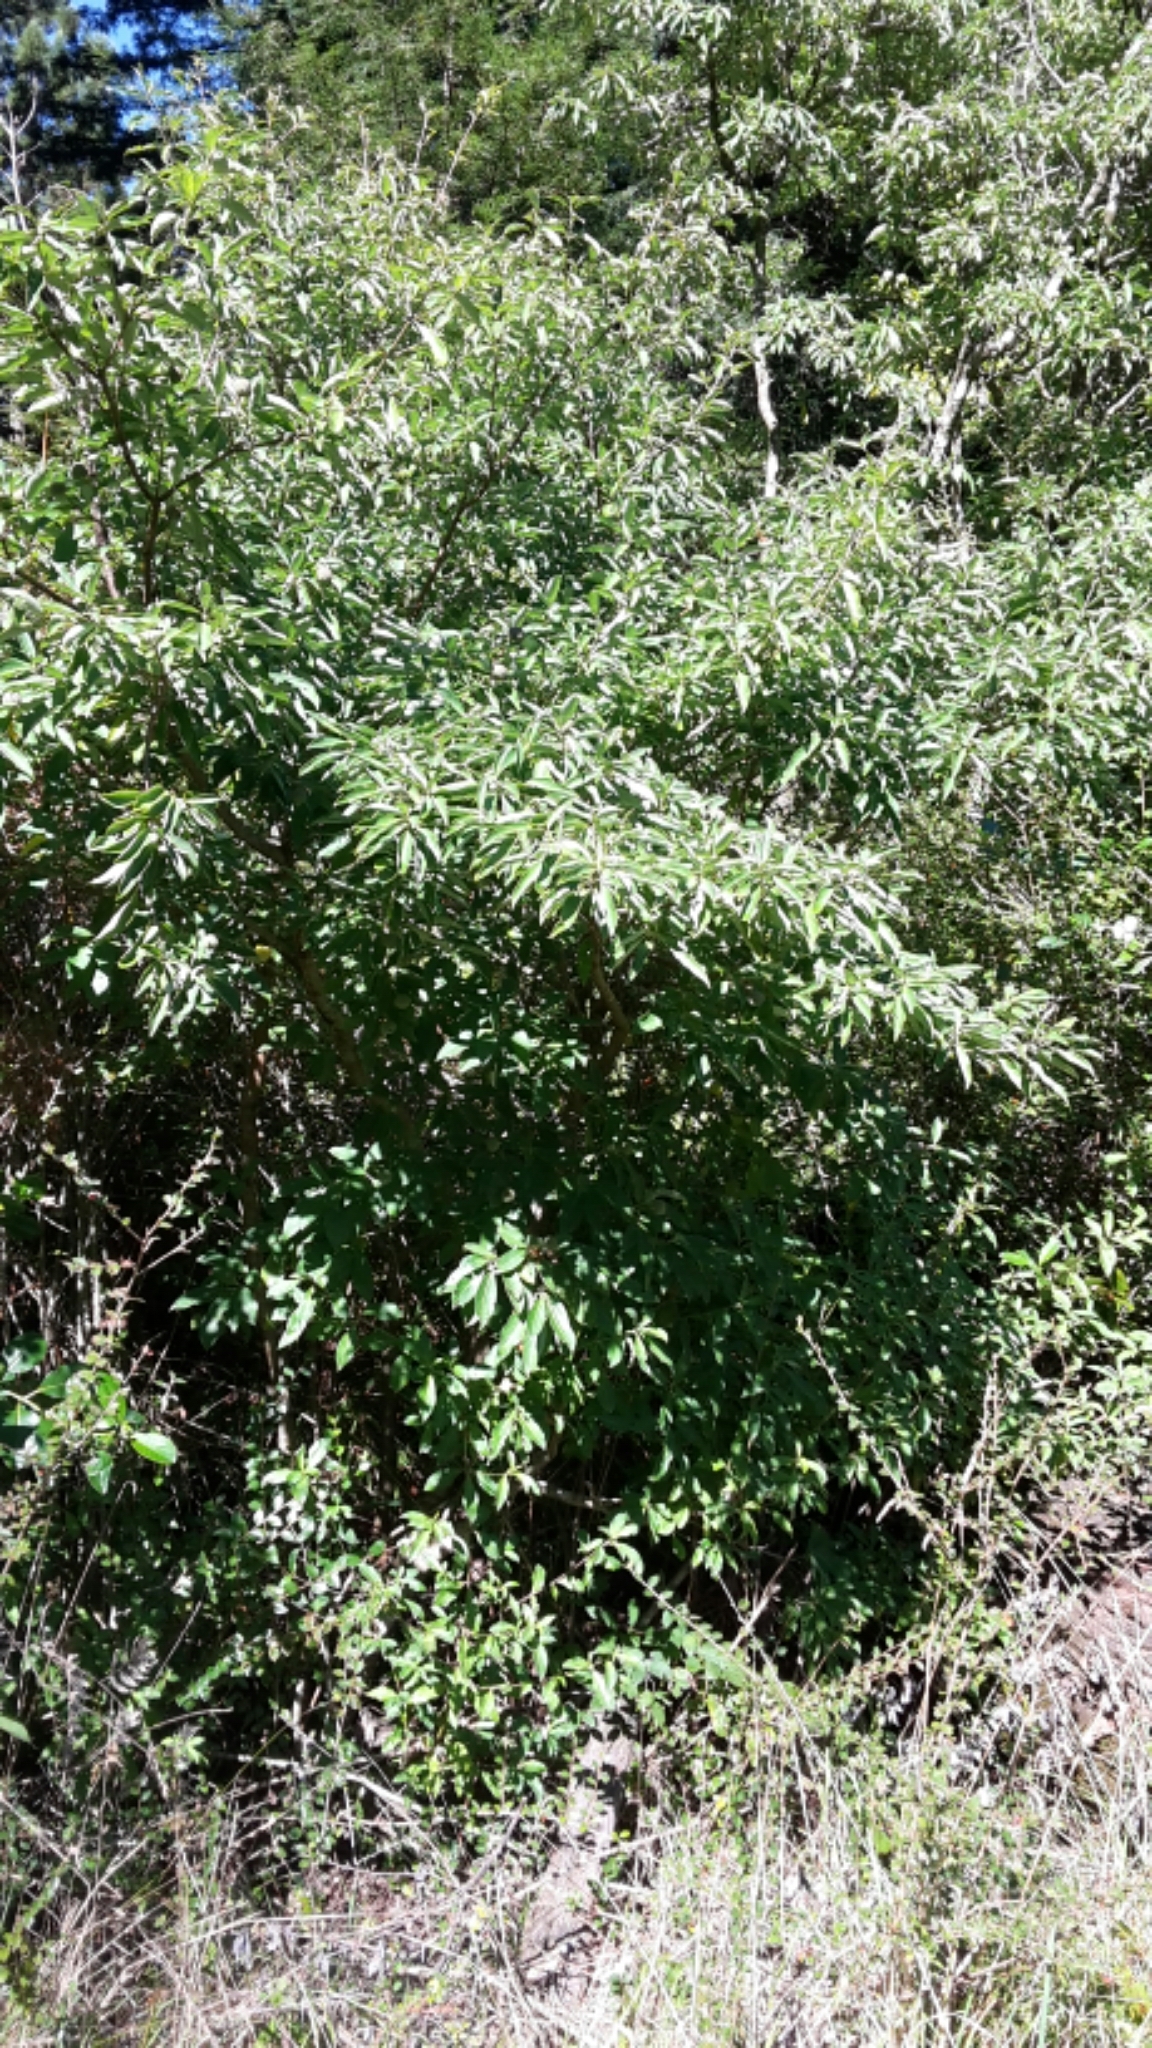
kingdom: Plantae
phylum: Tracheophyta
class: Magnoliopsida
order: Cornales
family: Cornaceae
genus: Cornus
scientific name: Cornus capitata
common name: Bentham's cornel
